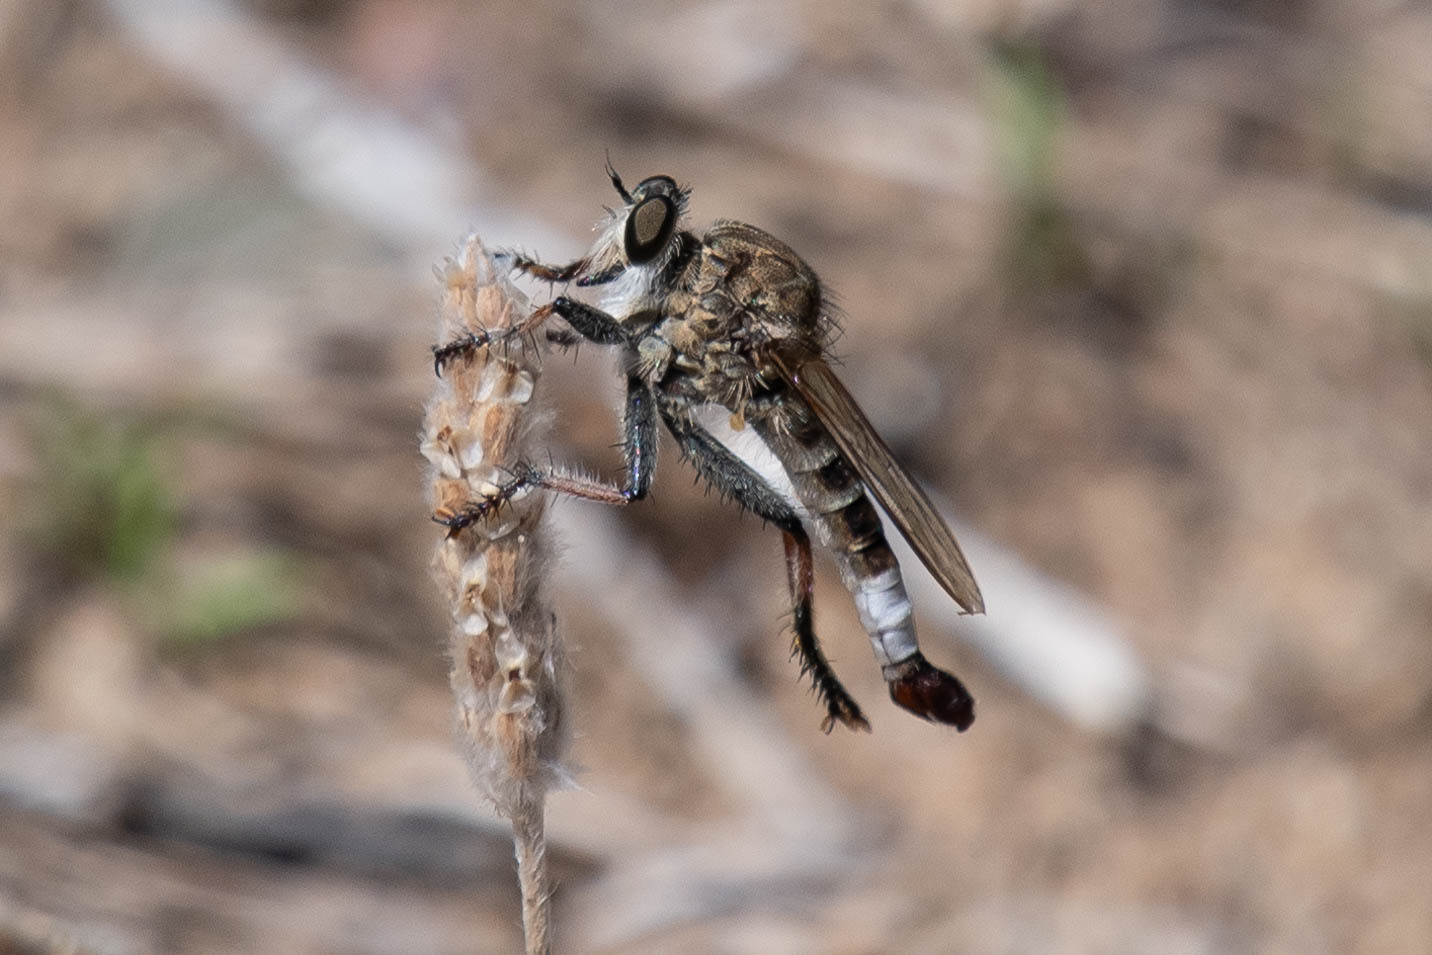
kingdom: Animalia
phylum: Arthropoda
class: Insecta
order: Diptera
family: Asilidae
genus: Efferia
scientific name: Efferia albibarbis
